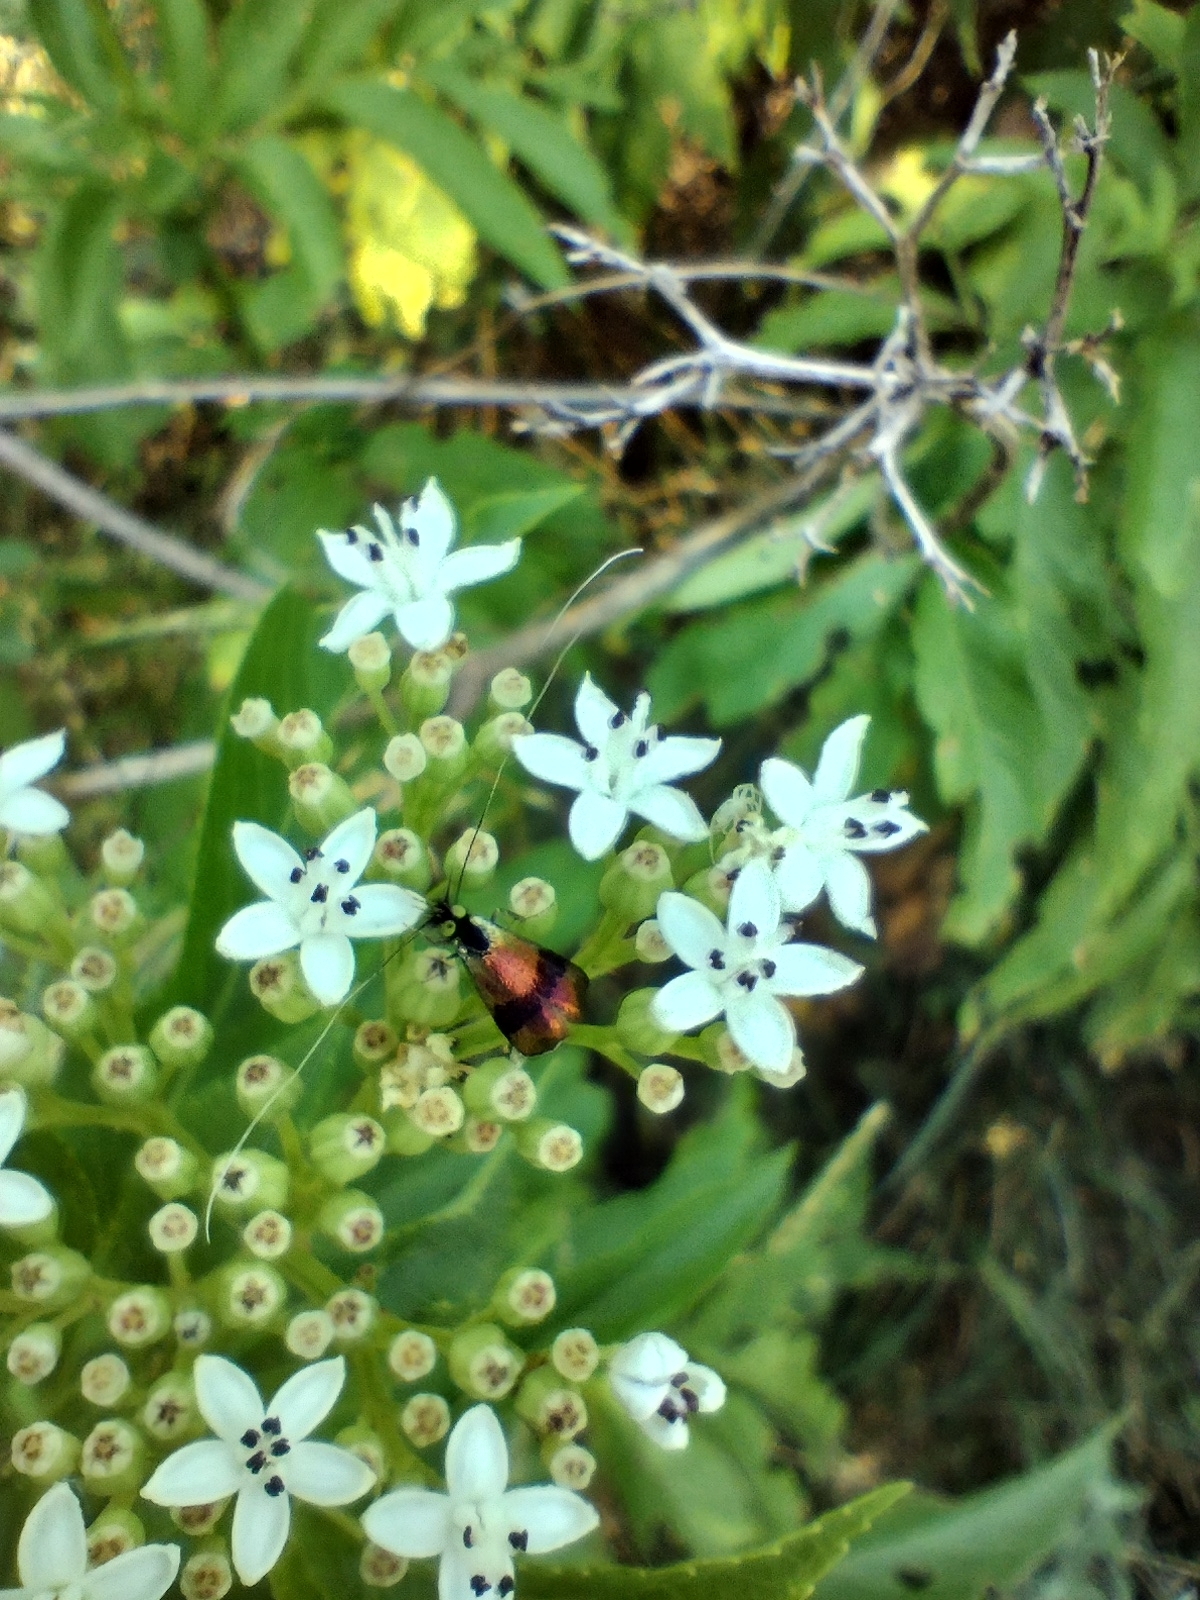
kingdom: Animalia
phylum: Arthropoda
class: Insecta
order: Lepidoptera
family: Adelidae
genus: Nemophora
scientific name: Nemophora
